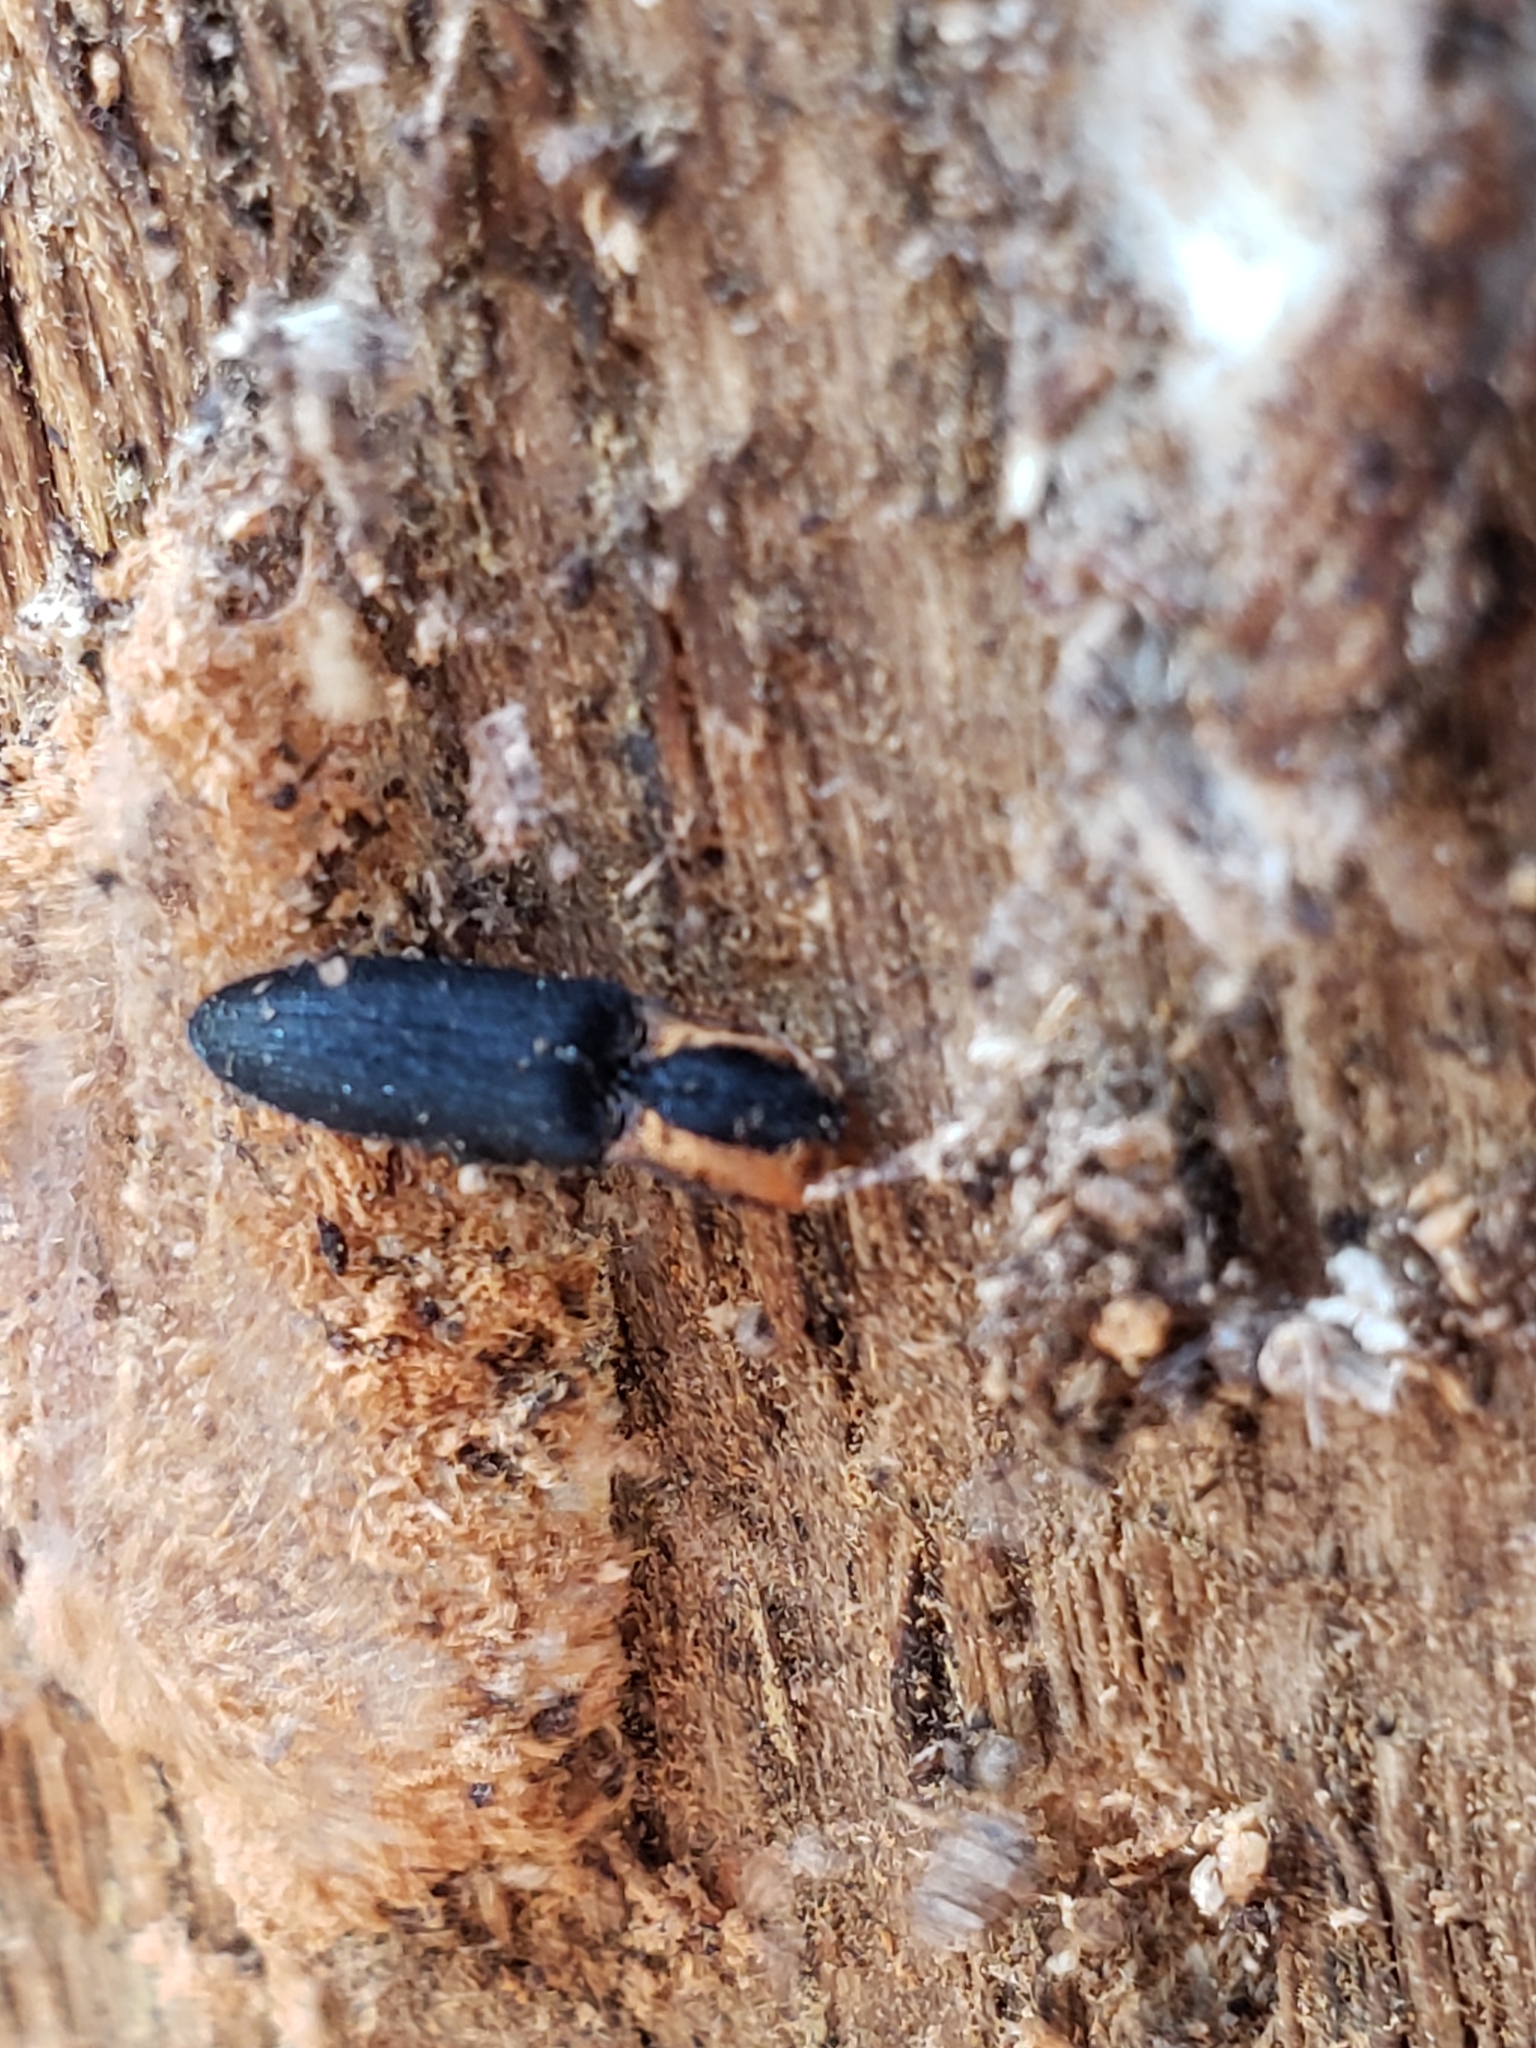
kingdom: Animalia
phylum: Arthropoda
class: Insecta
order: Coleoptera
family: Elateridae
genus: Lacon
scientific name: Lacon discoideus
